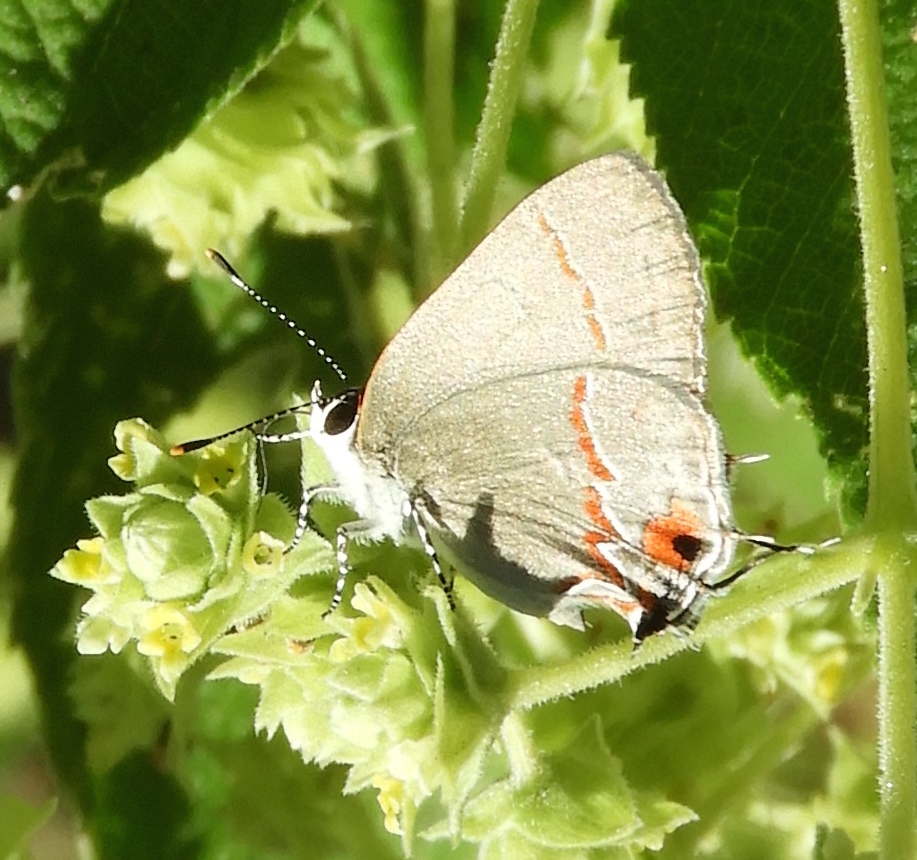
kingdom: Animalia
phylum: Arthropoda
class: Insecta
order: Lepidoptera
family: Lycaenidae
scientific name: Lycaenidae
